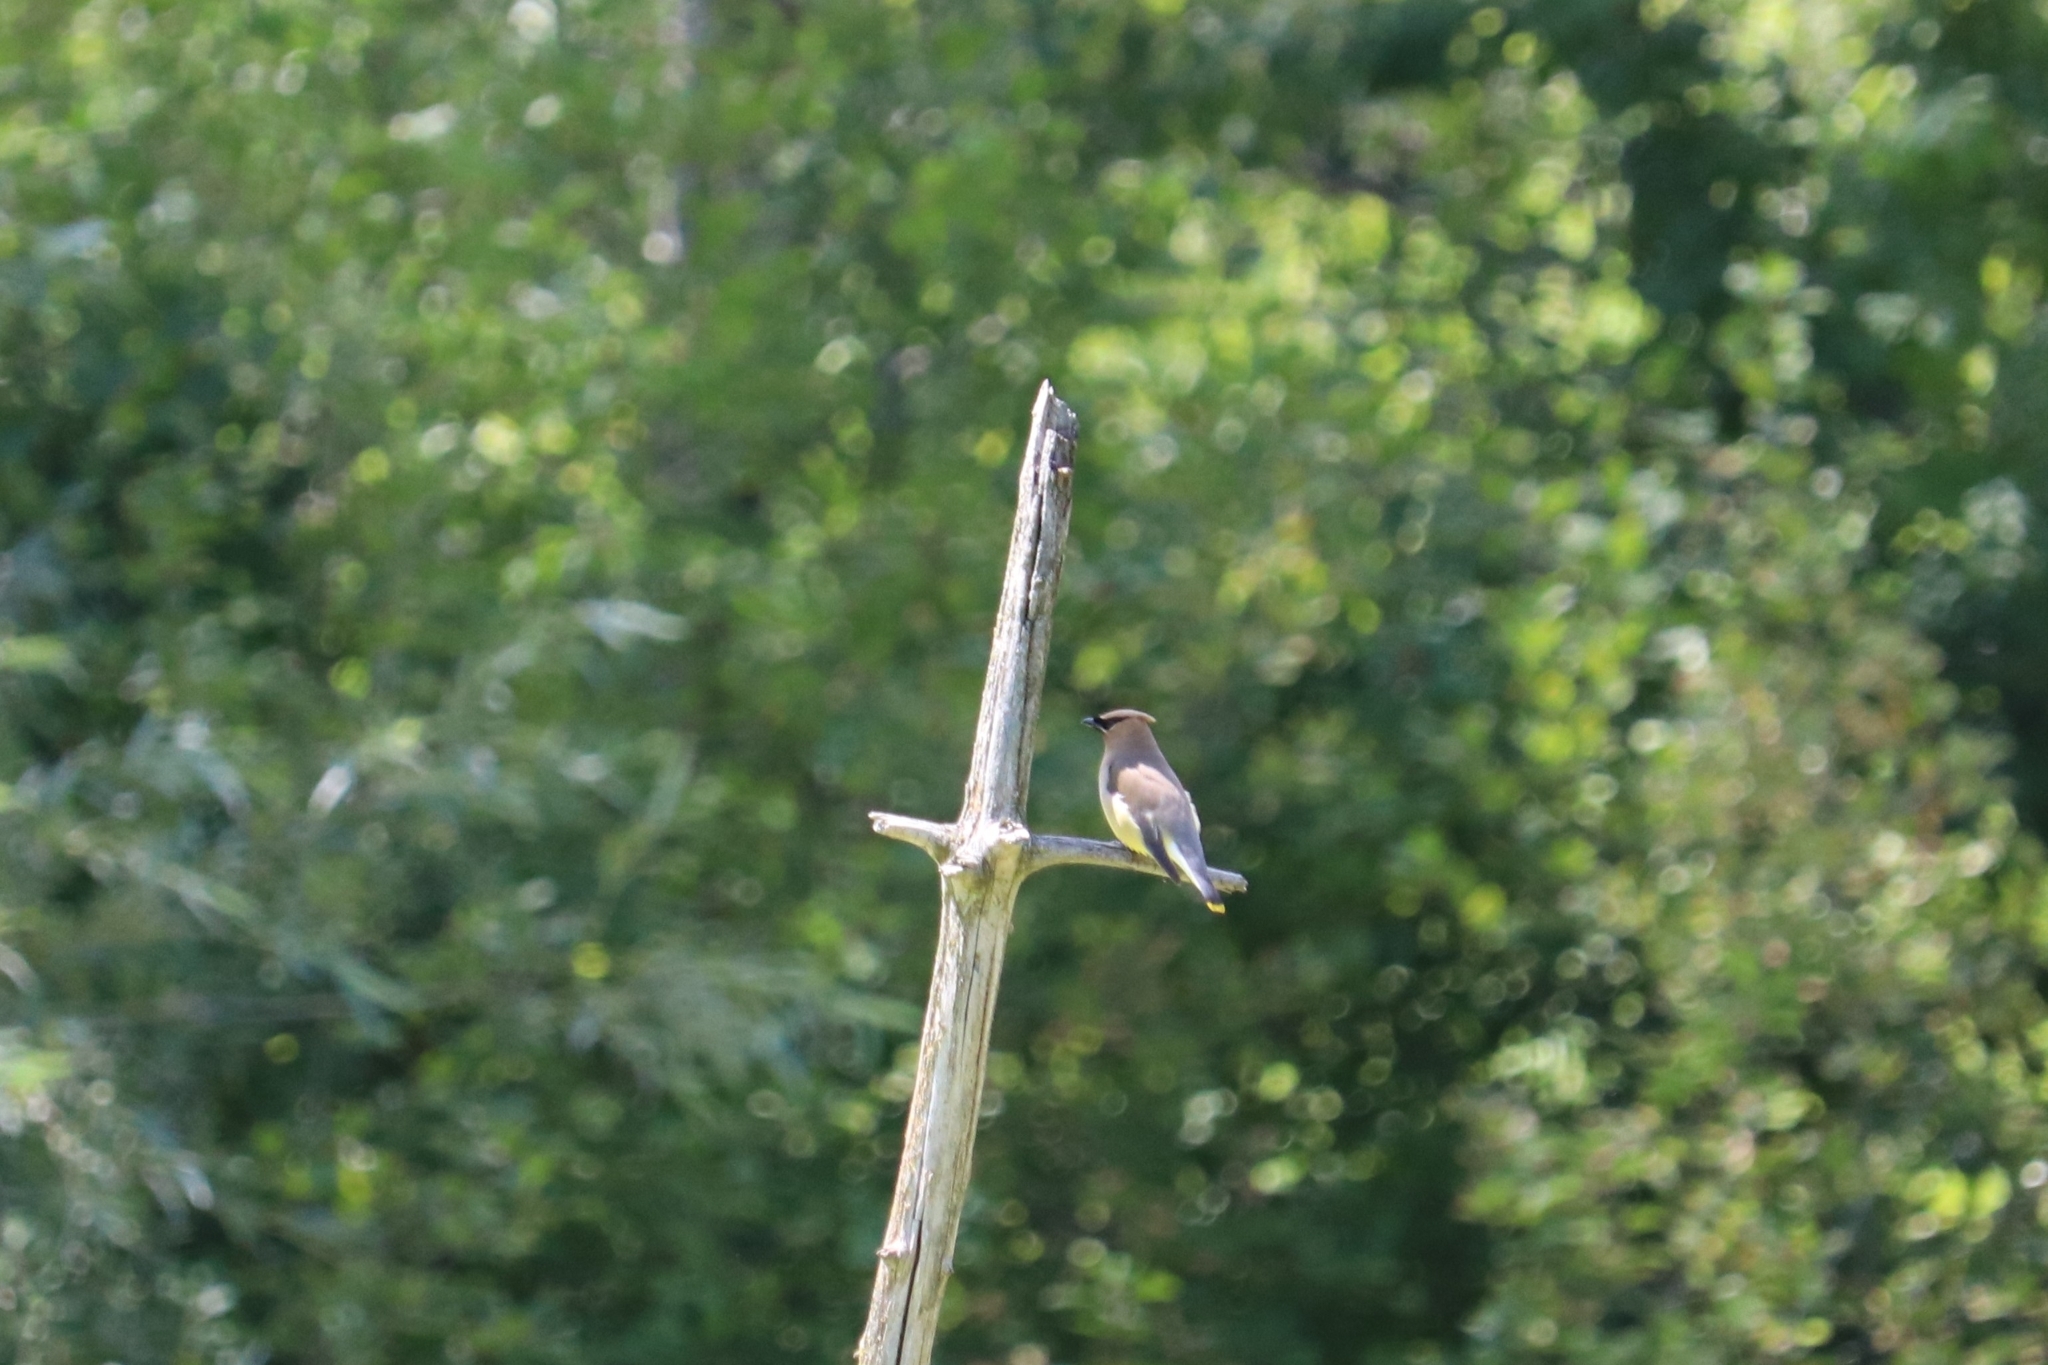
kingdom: Animalia
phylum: Chordata
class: Aves
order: Passeriformes
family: Bombycillidae
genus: Bombycilla
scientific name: Bombycilla cedrorum
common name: Cedar waxwing
